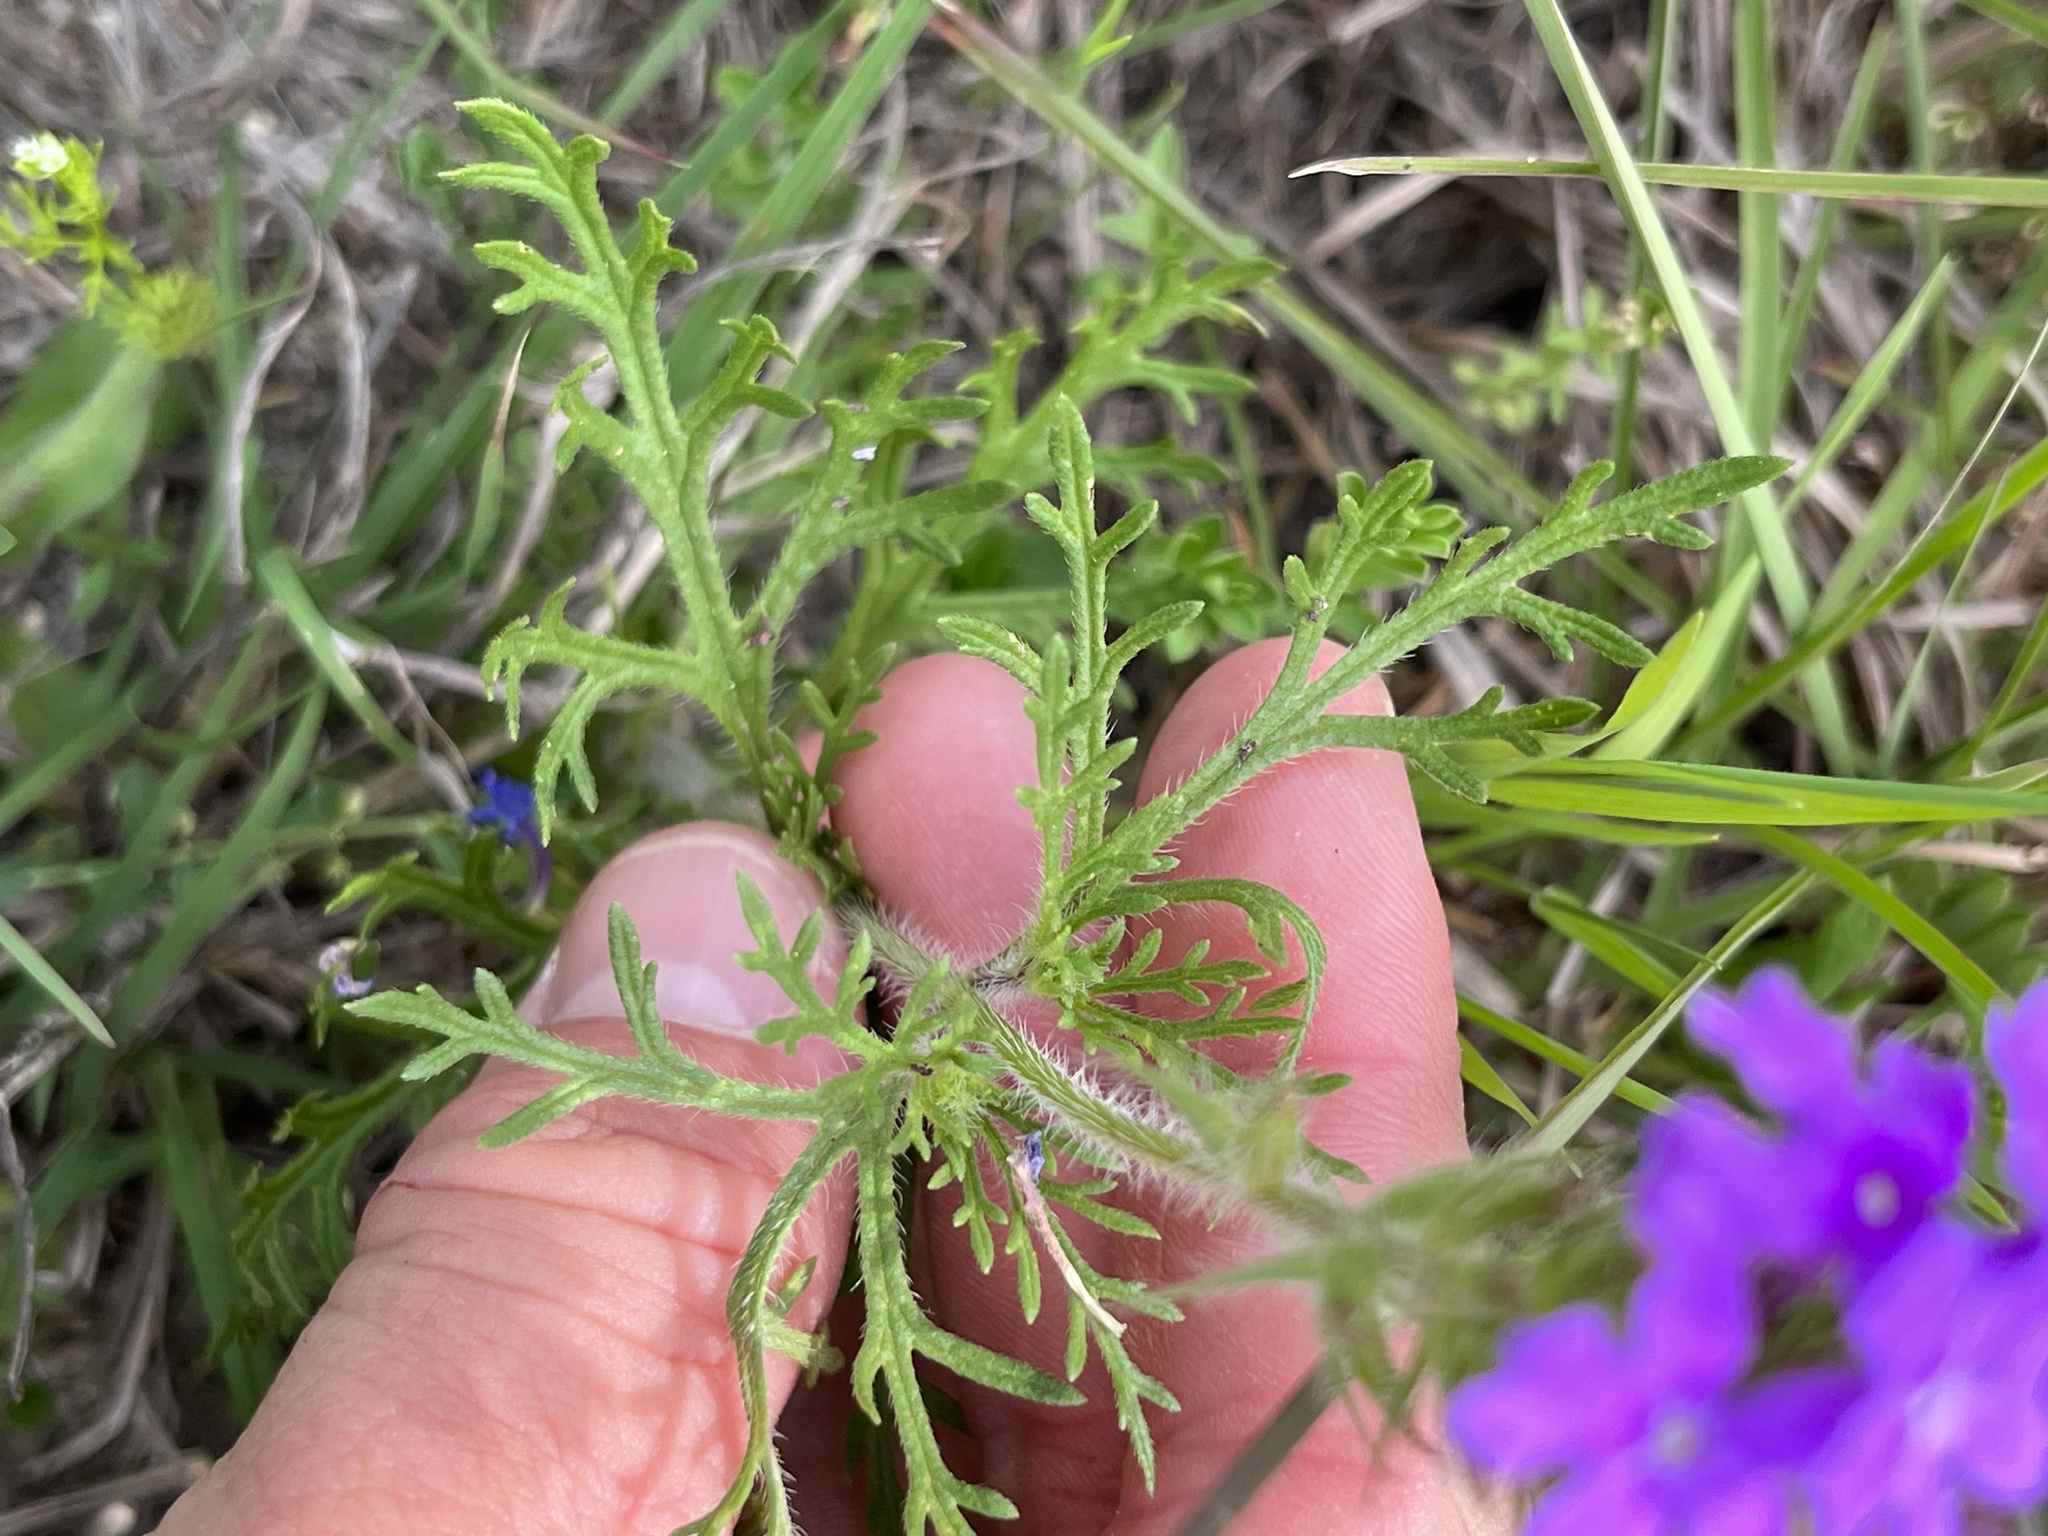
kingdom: Plantae
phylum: Tracheophyta
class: Magnoliopsida
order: Lamiales
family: Verbenaceae
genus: Verbena
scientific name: Verbena bipinnatifida
